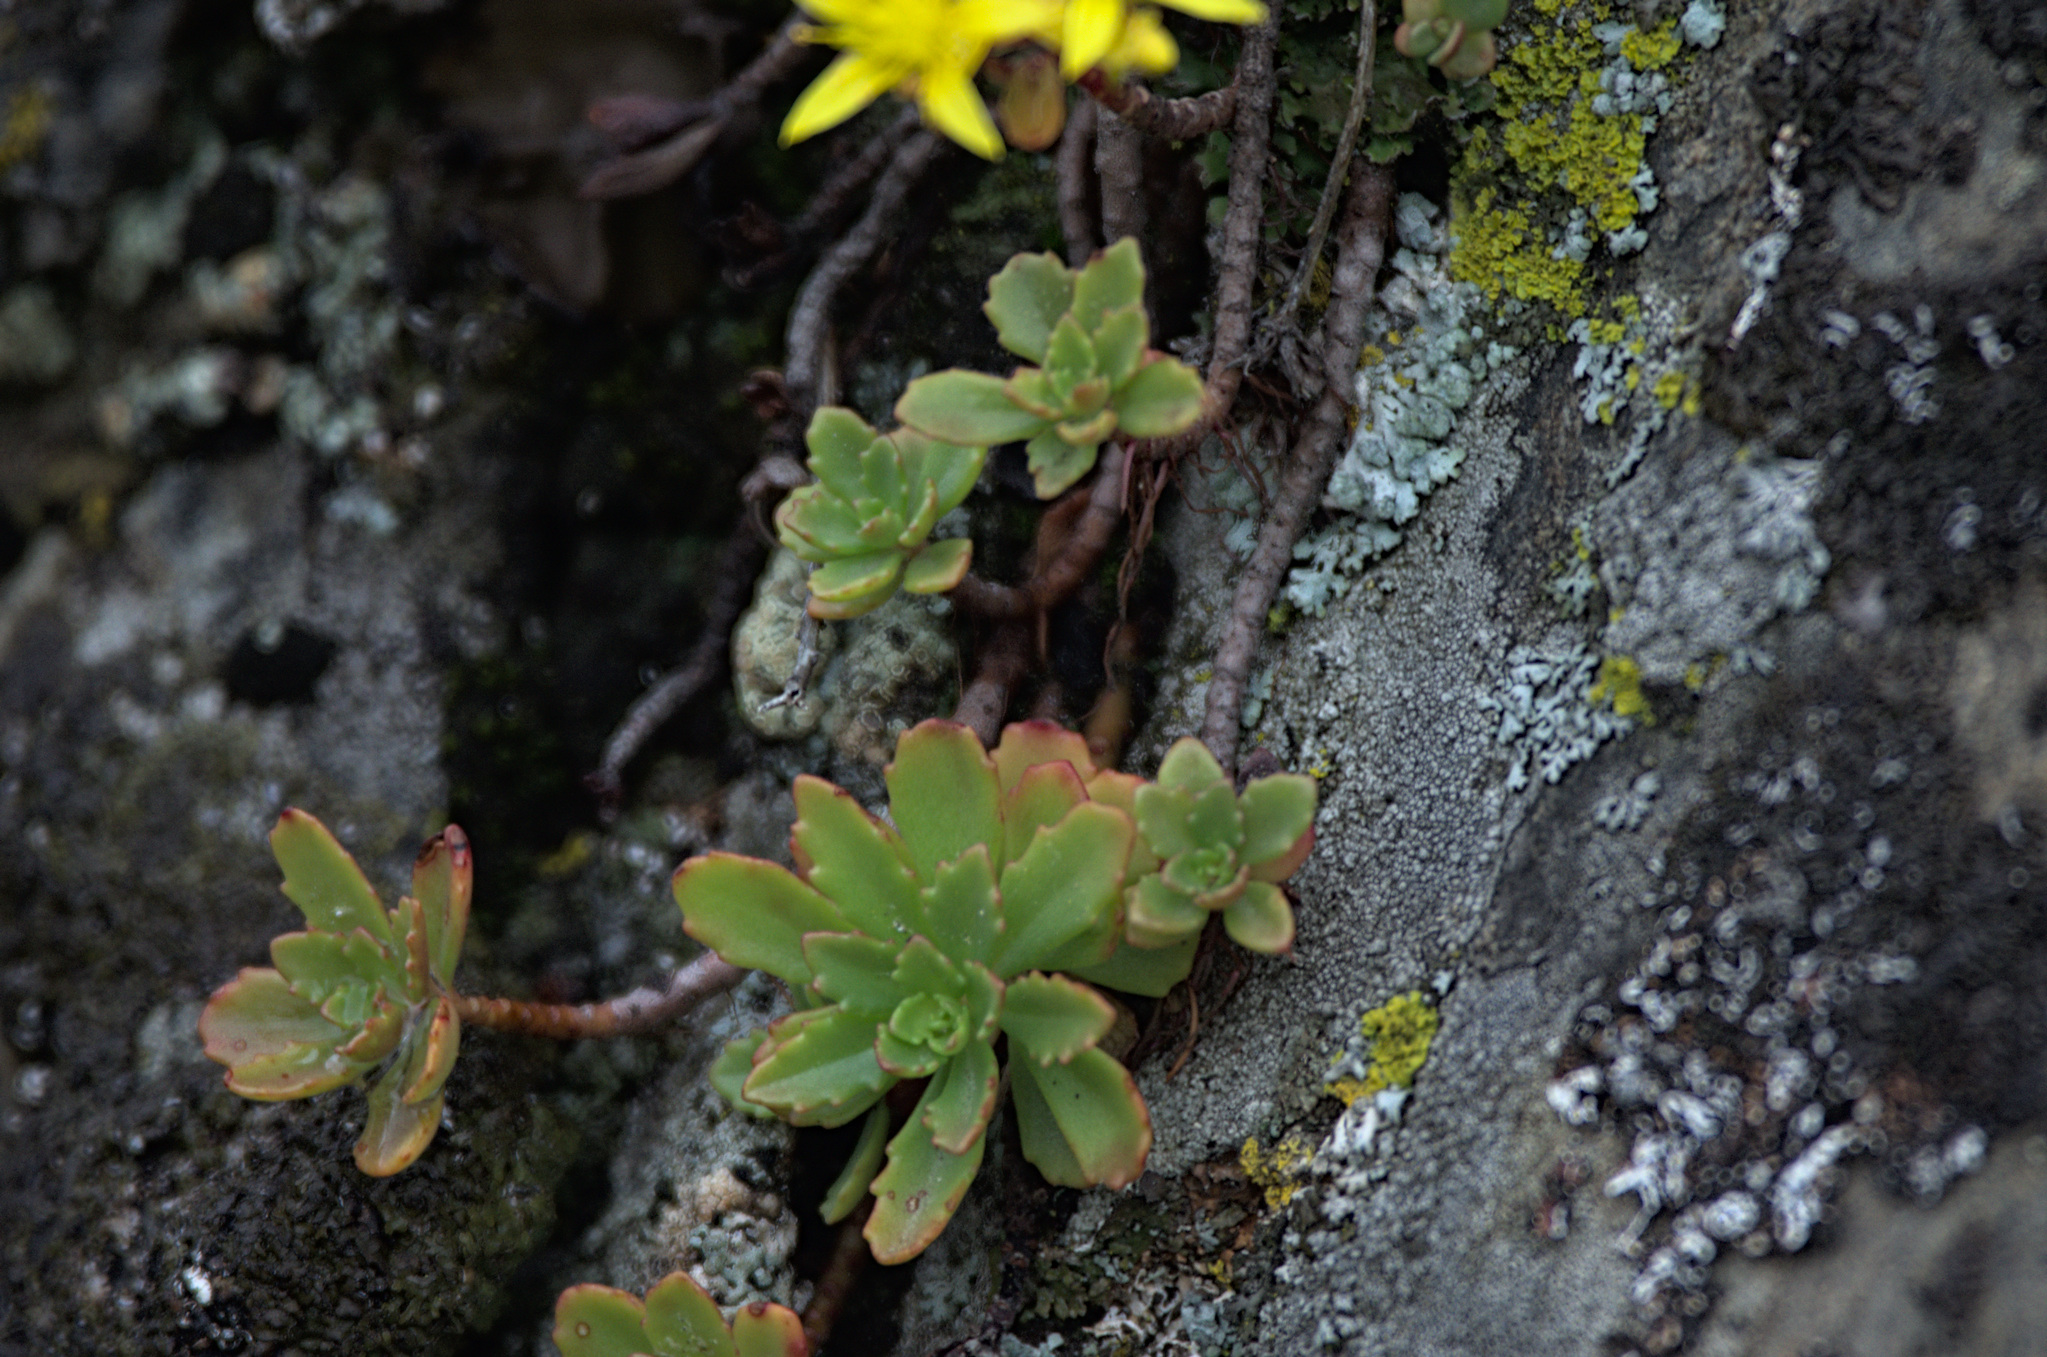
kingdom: Plantae
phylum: Tracheophyta
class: Magnoliopsida
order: Saxifragales
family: Crassulaceae
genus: Phedimus
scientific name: Phedimus hybridus
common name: Hybrid stonecrop
